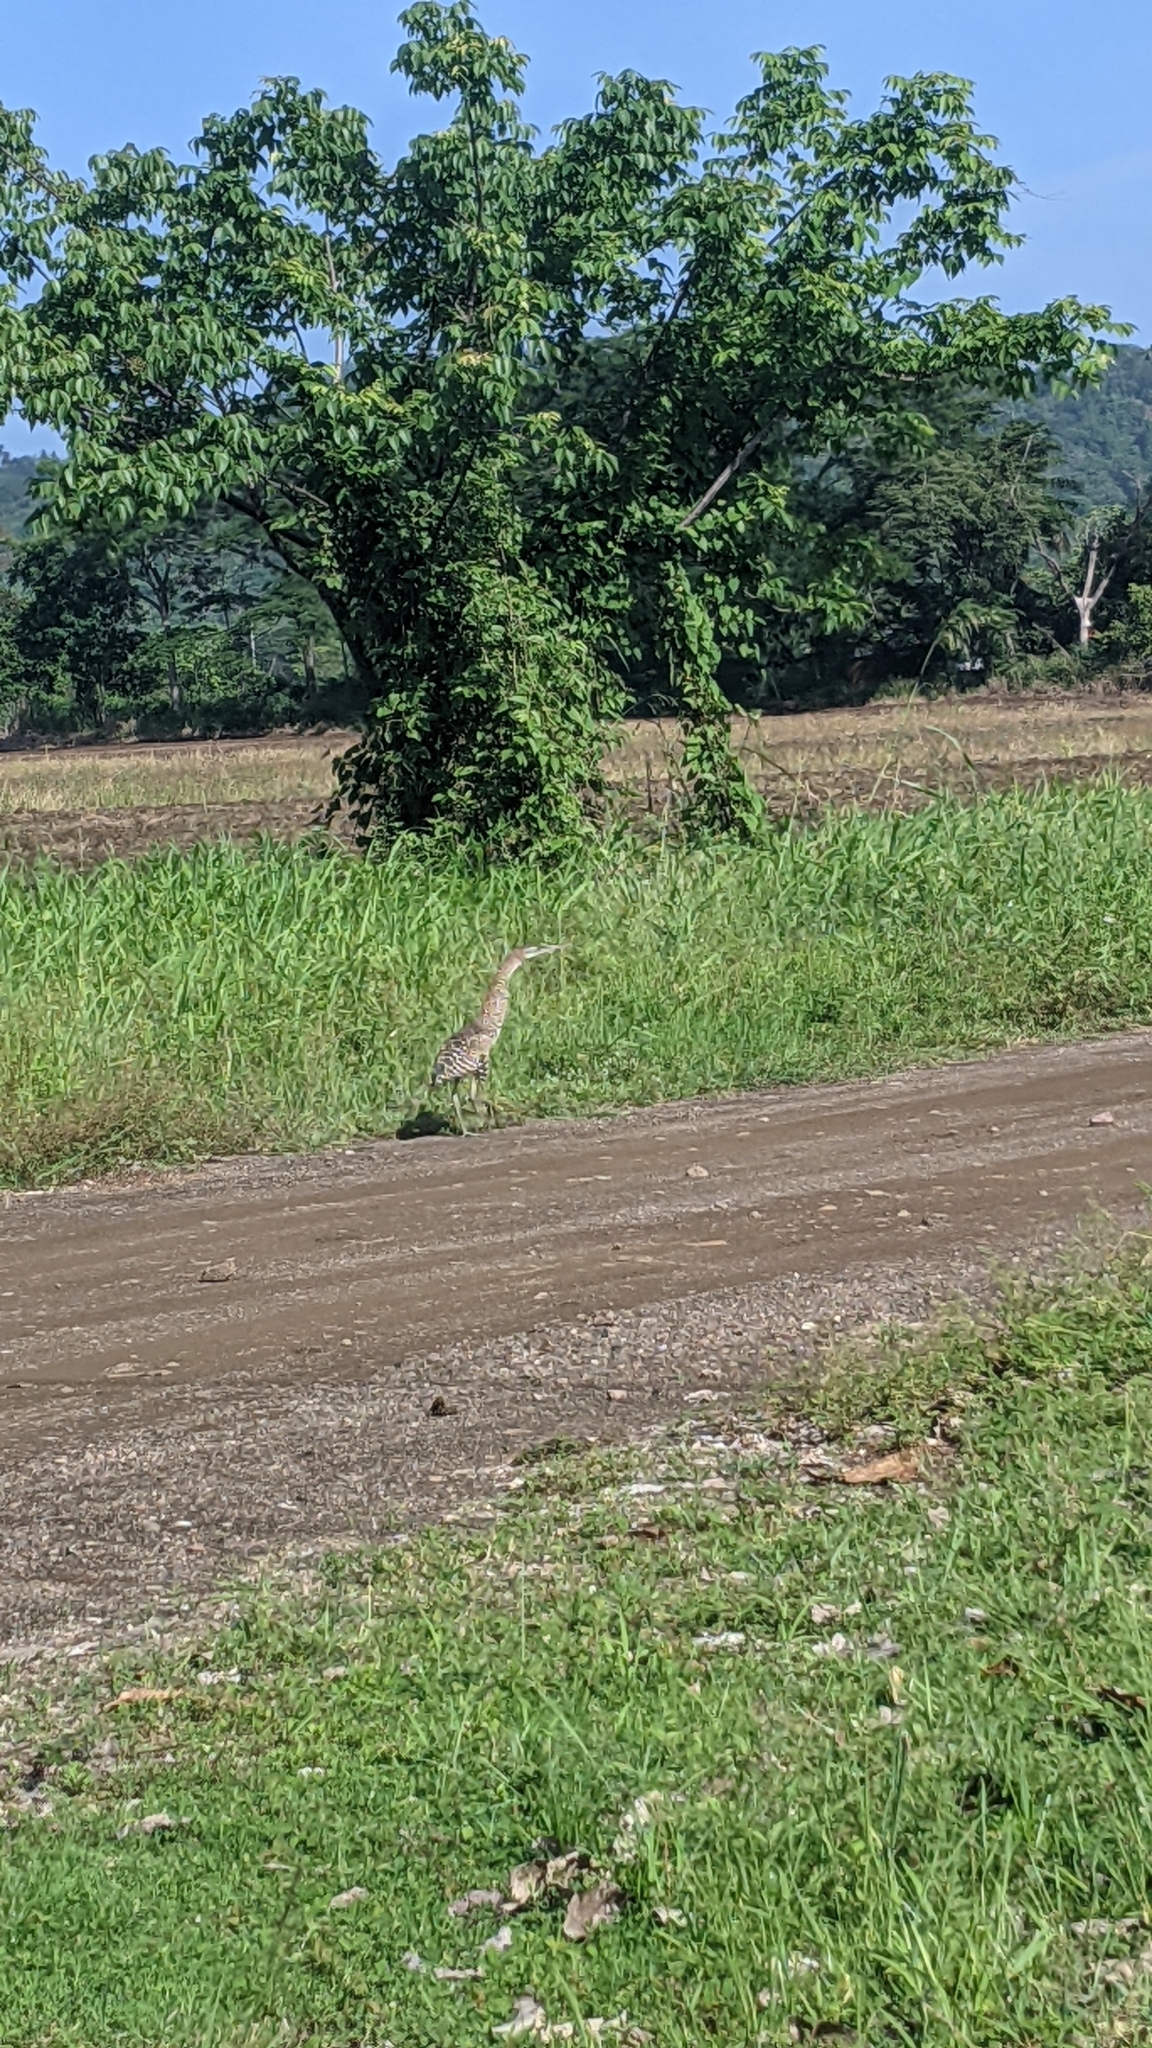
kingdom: Animalia
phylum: Chordata
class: Aves
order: Pelecaniformes
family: Ardeidae
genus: Tigrisoma
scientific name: Tigrisoma mexicanum
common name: Bare-throated tiger-heron
